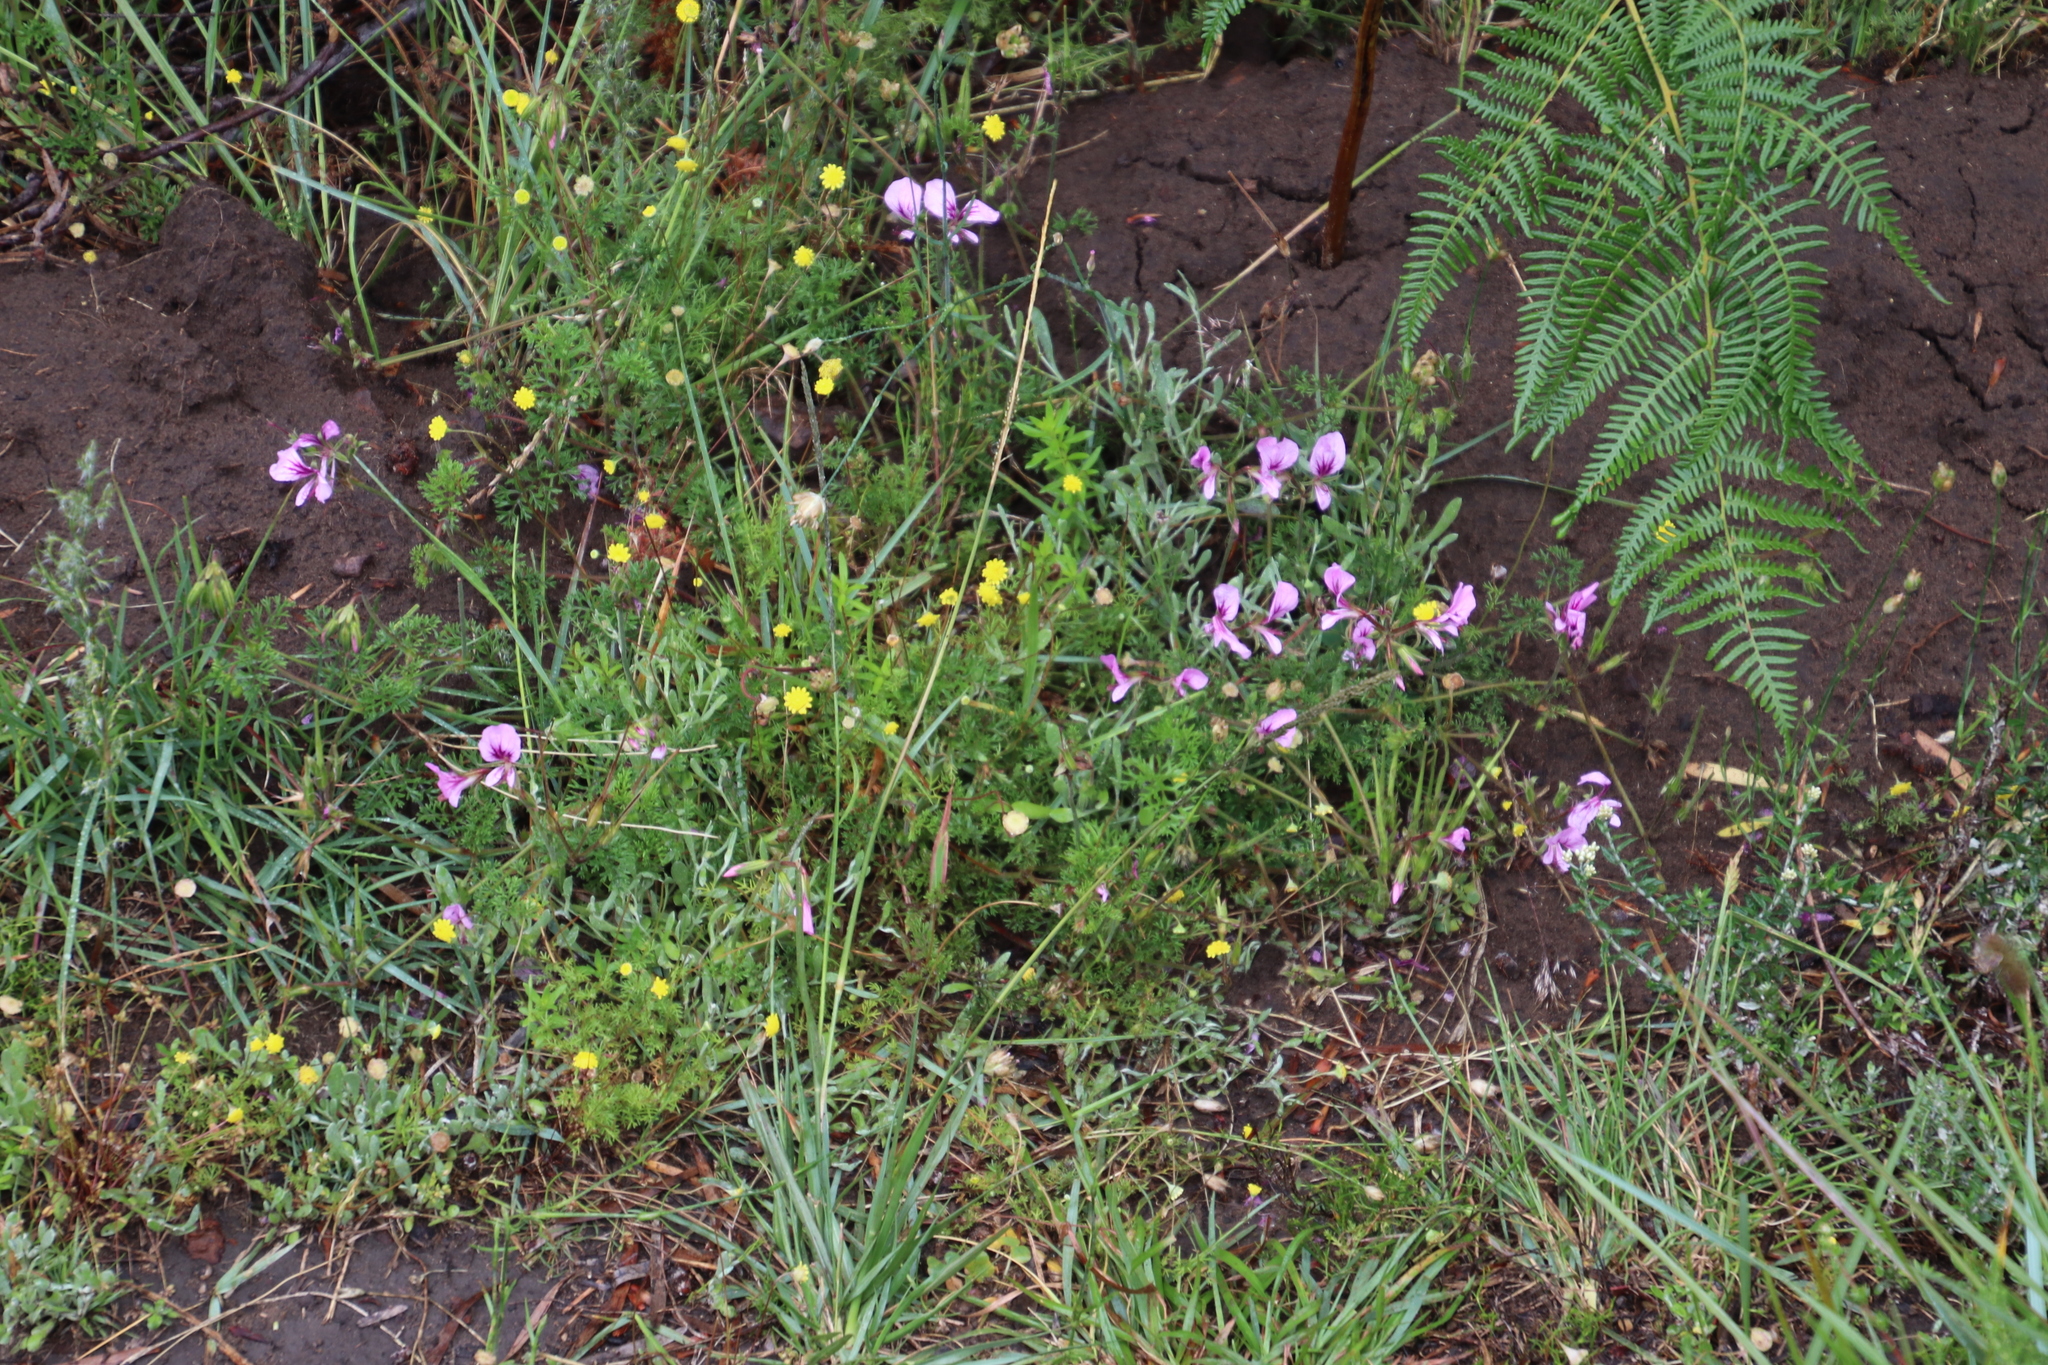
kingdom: Plantae
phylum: Tracheophyta
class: Magnoliopsida
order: Geraniales
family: Geraniaceae
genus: Pelargonium
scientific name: Pelargonium myrrhifolium
